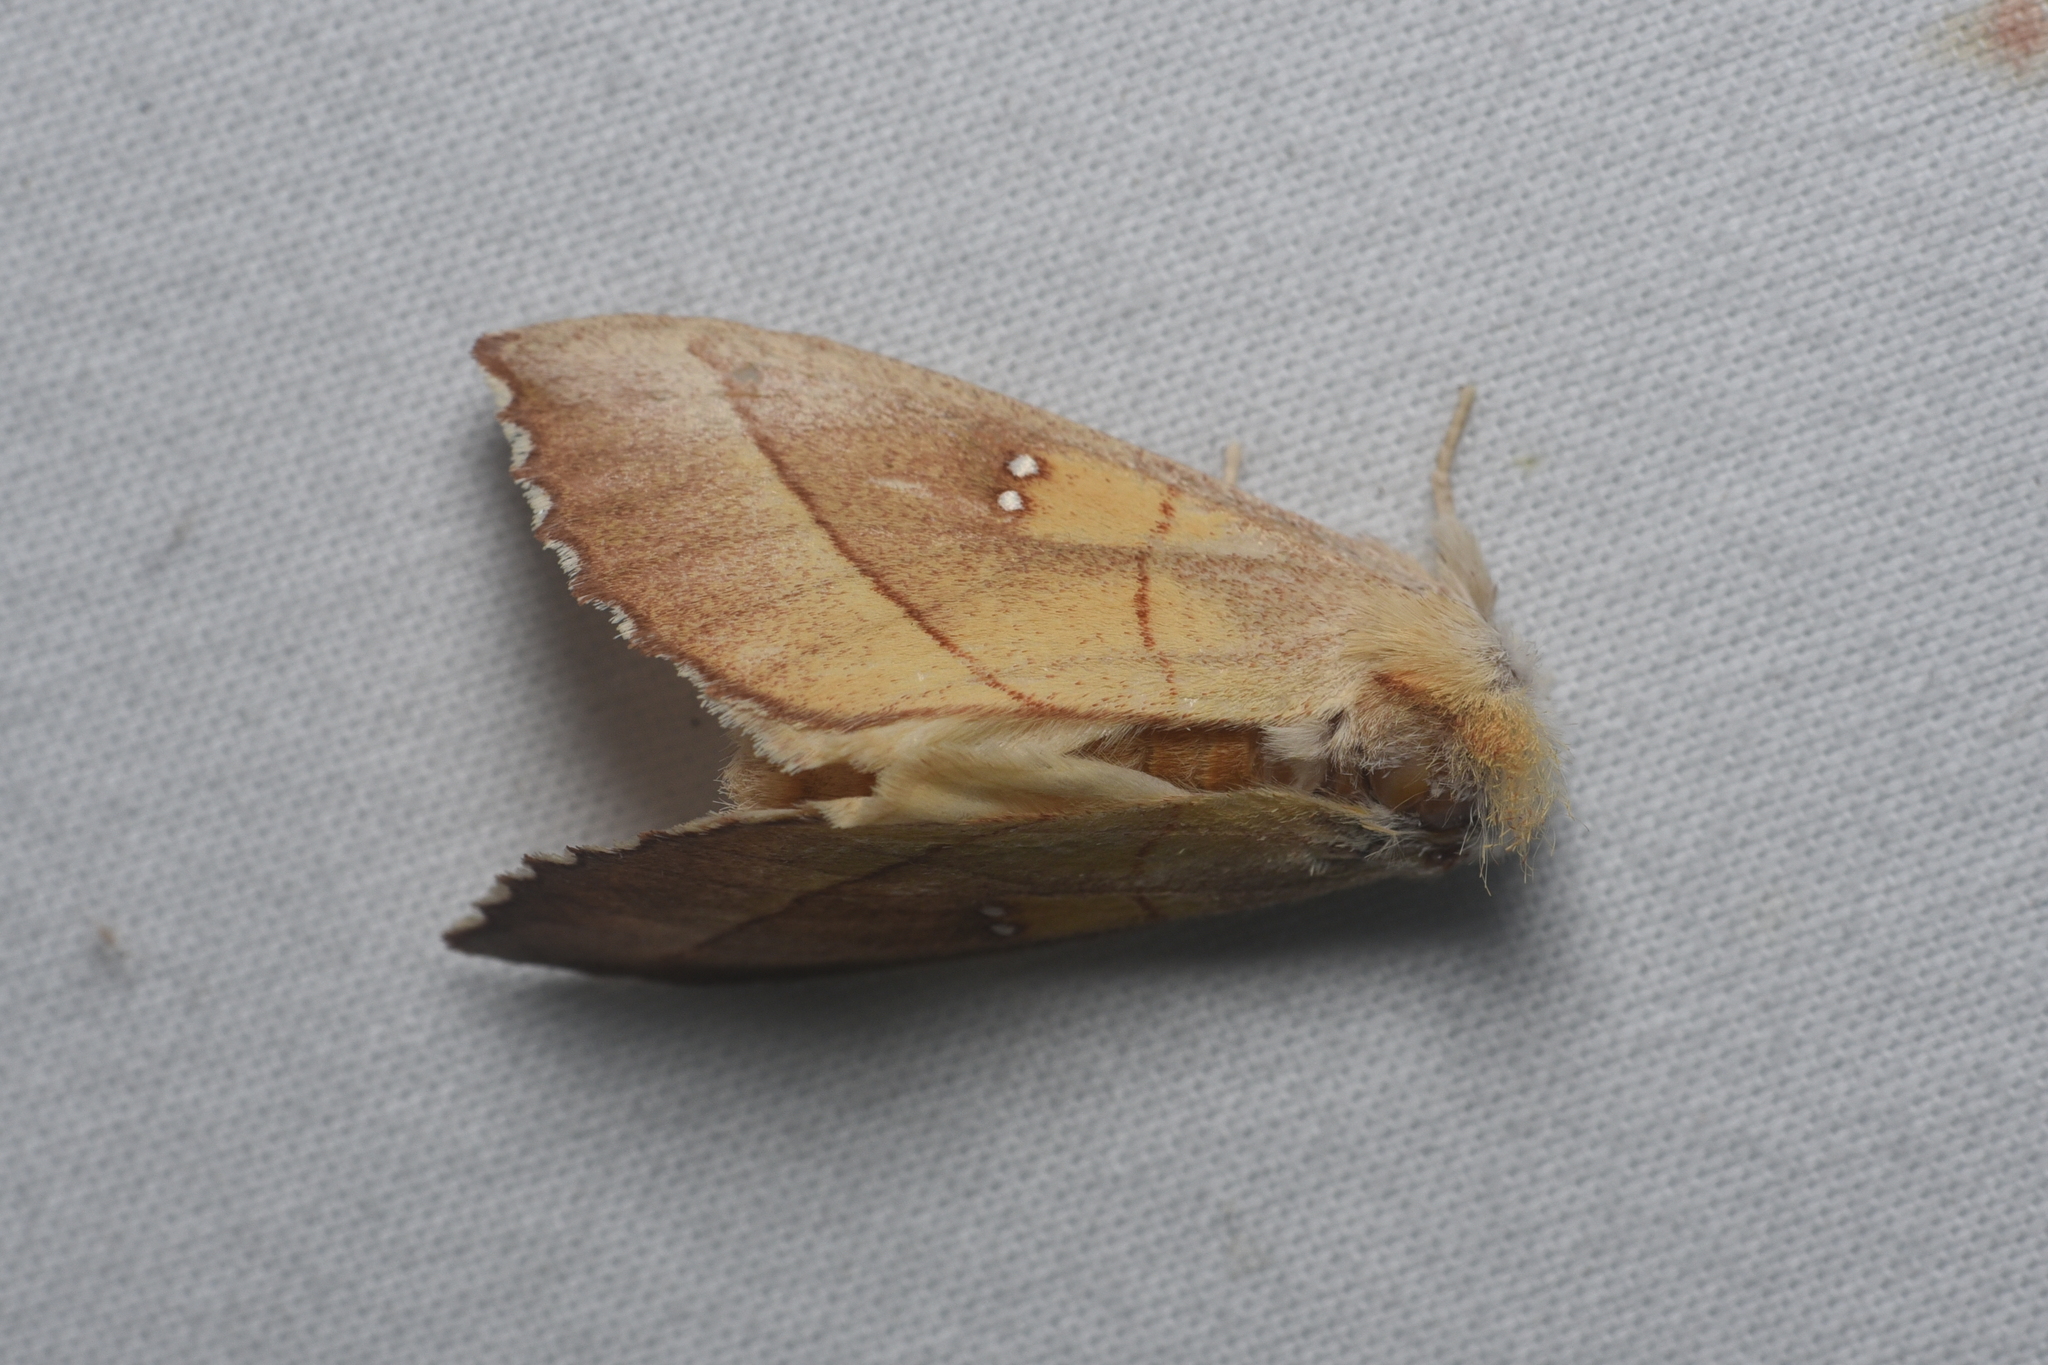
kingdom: Animalia
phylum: Arthropoda
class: Insecta
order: Lepidoptera
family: Notodontidae
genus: Nadata
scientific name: Nadata gibbosa
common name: White-dotted prominent
